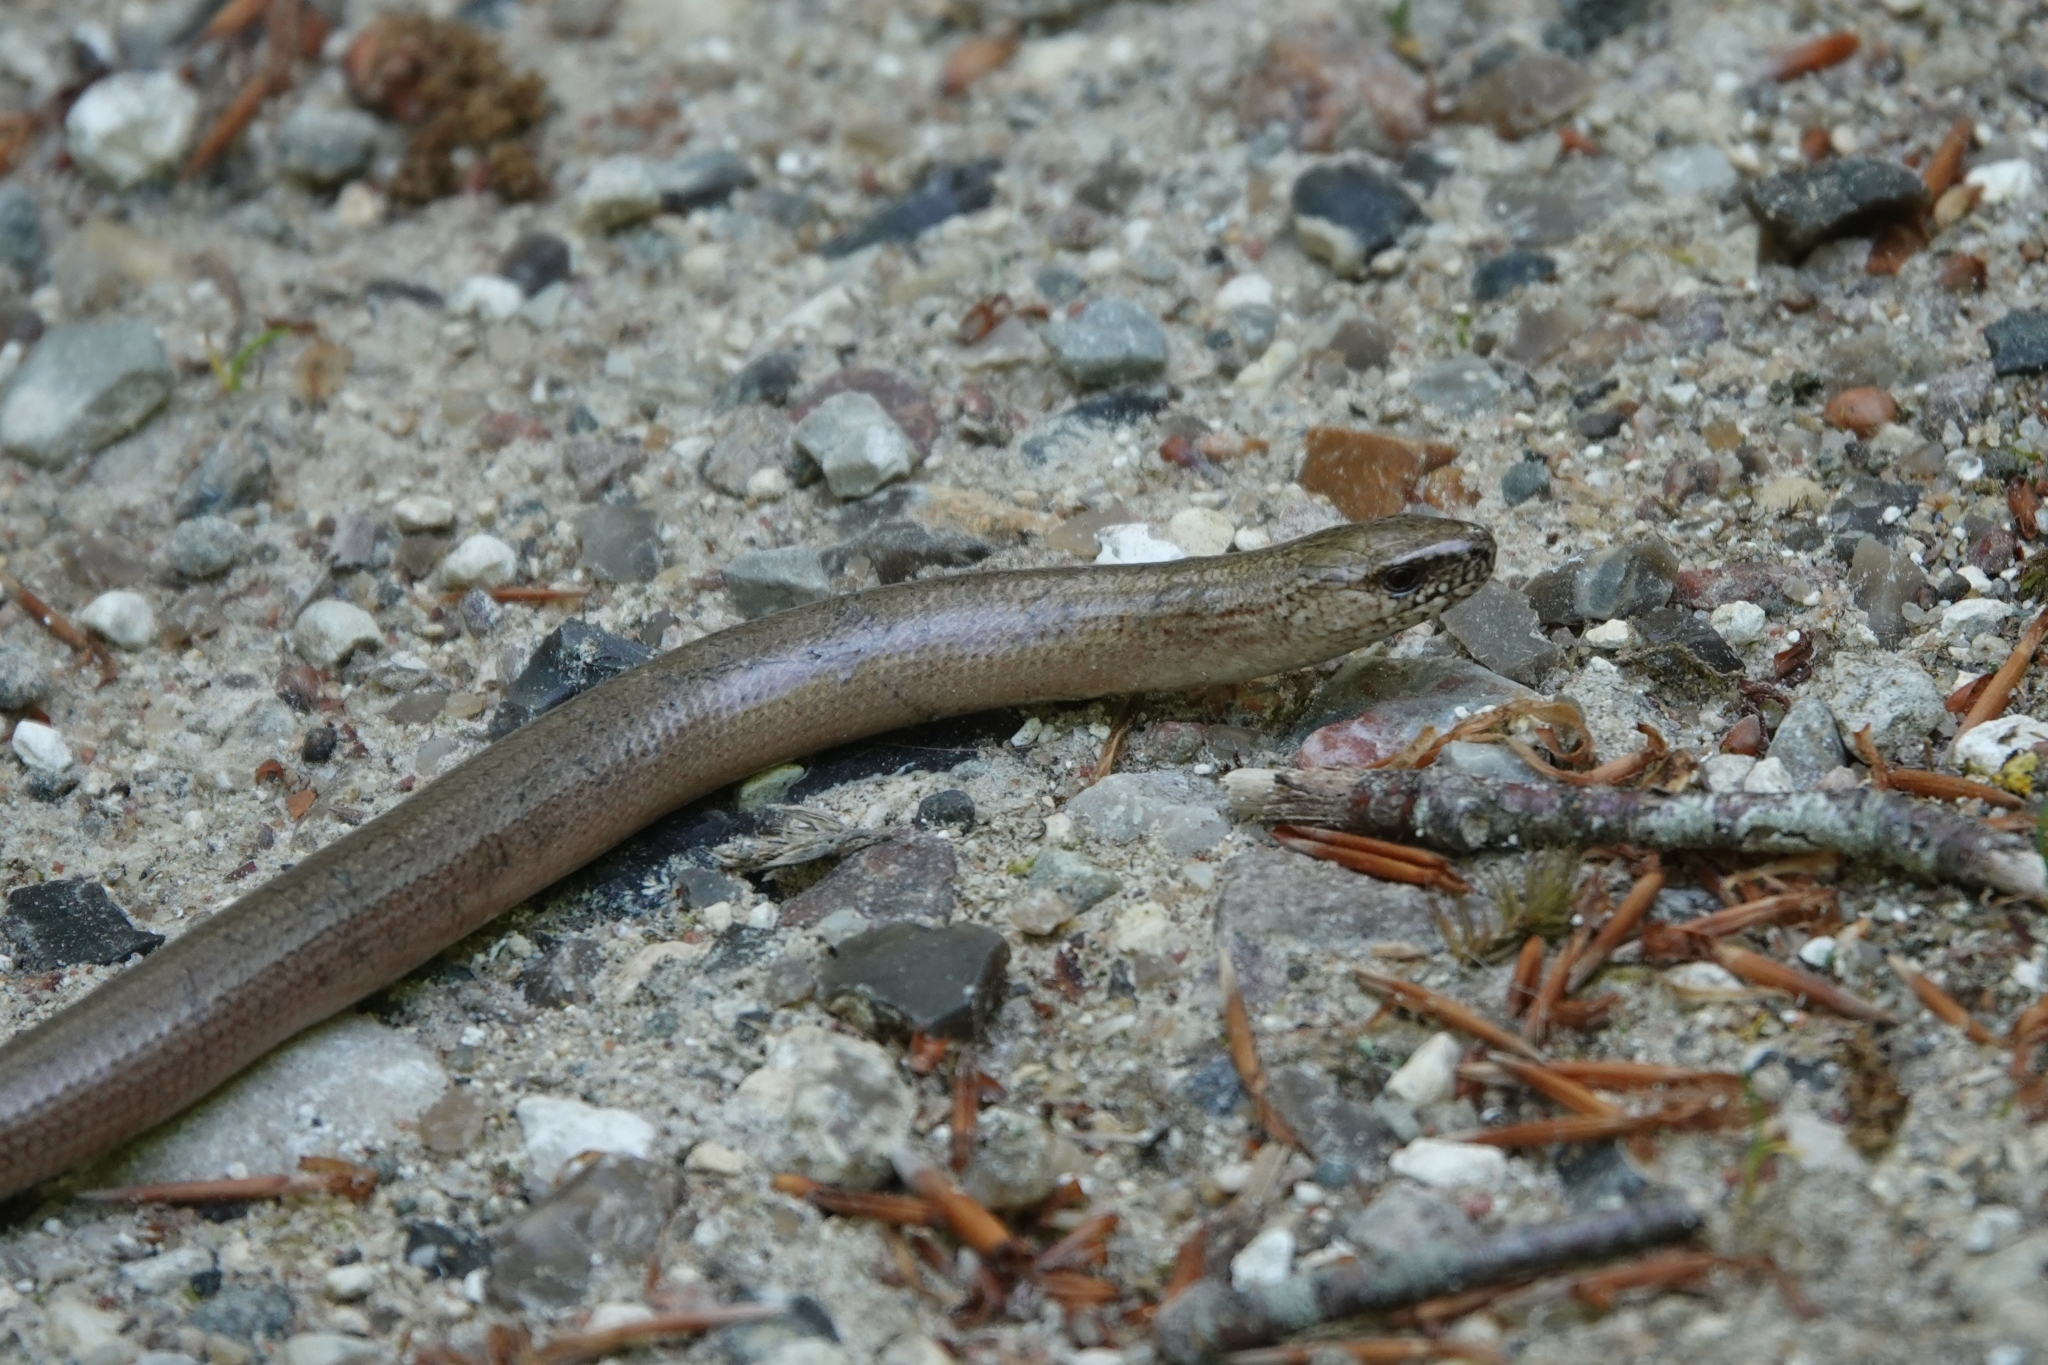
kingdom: Animalia
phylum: Chordata
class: Squamata
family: Anguidae
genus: Anguis
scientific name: Anguis fragilis
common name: Slow worm
